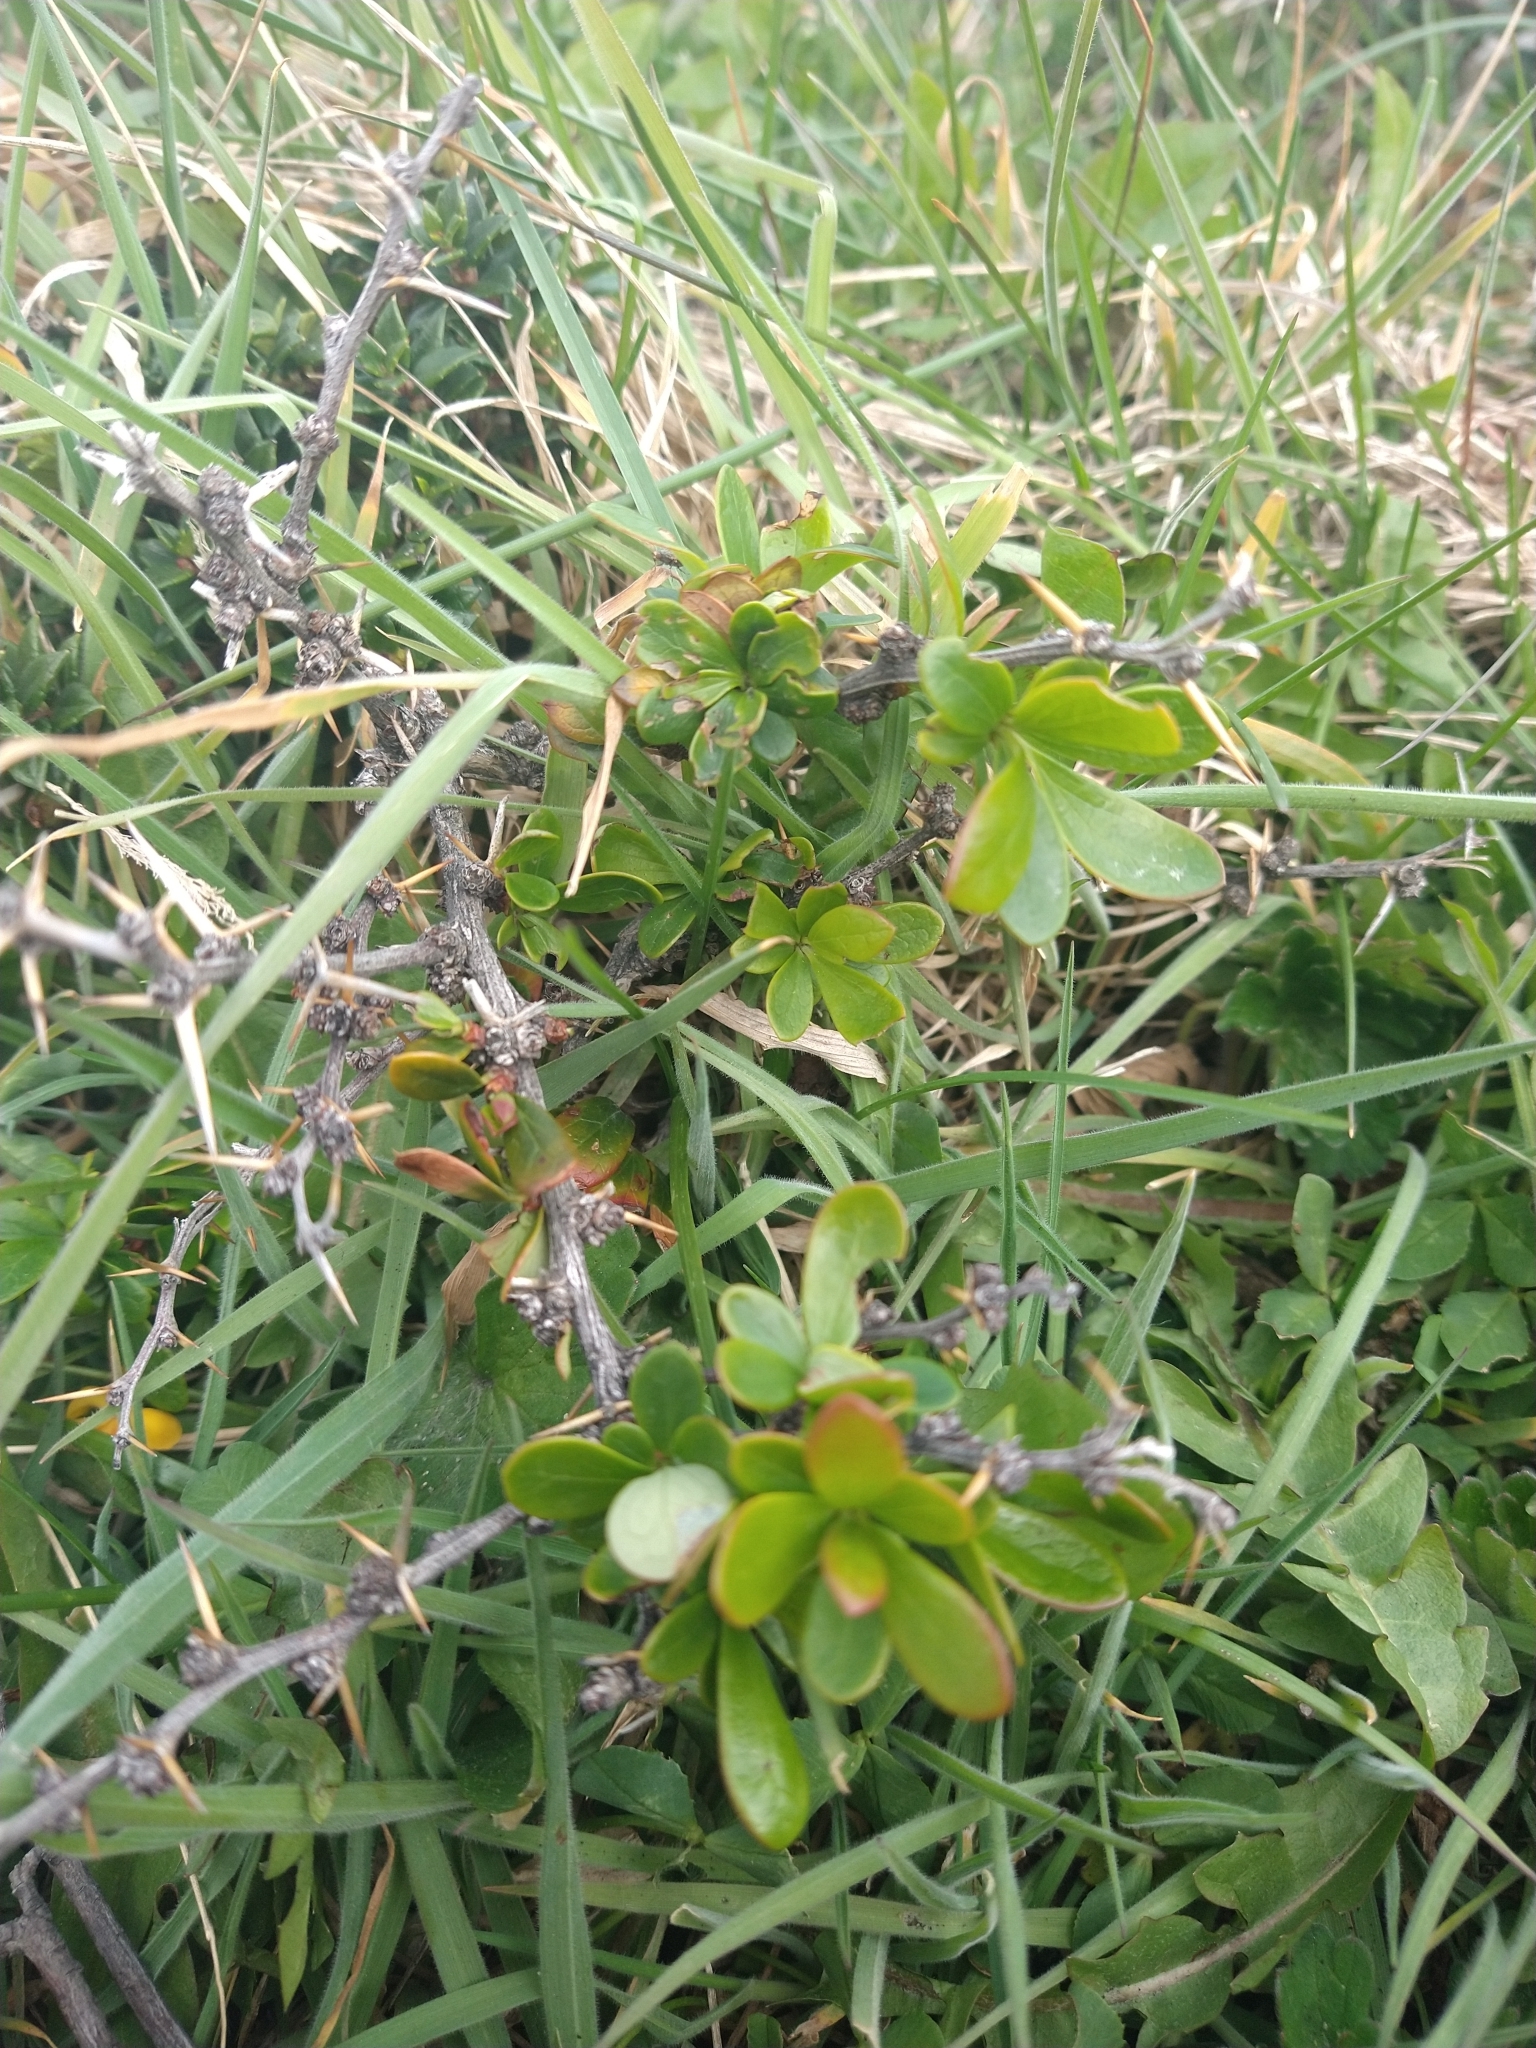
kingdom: Plantae
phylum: Tracheophyta
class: Magnoliopsida
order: Ranunculales
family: Berberidaceae
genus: Berberis
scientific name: Berberis microphylla
